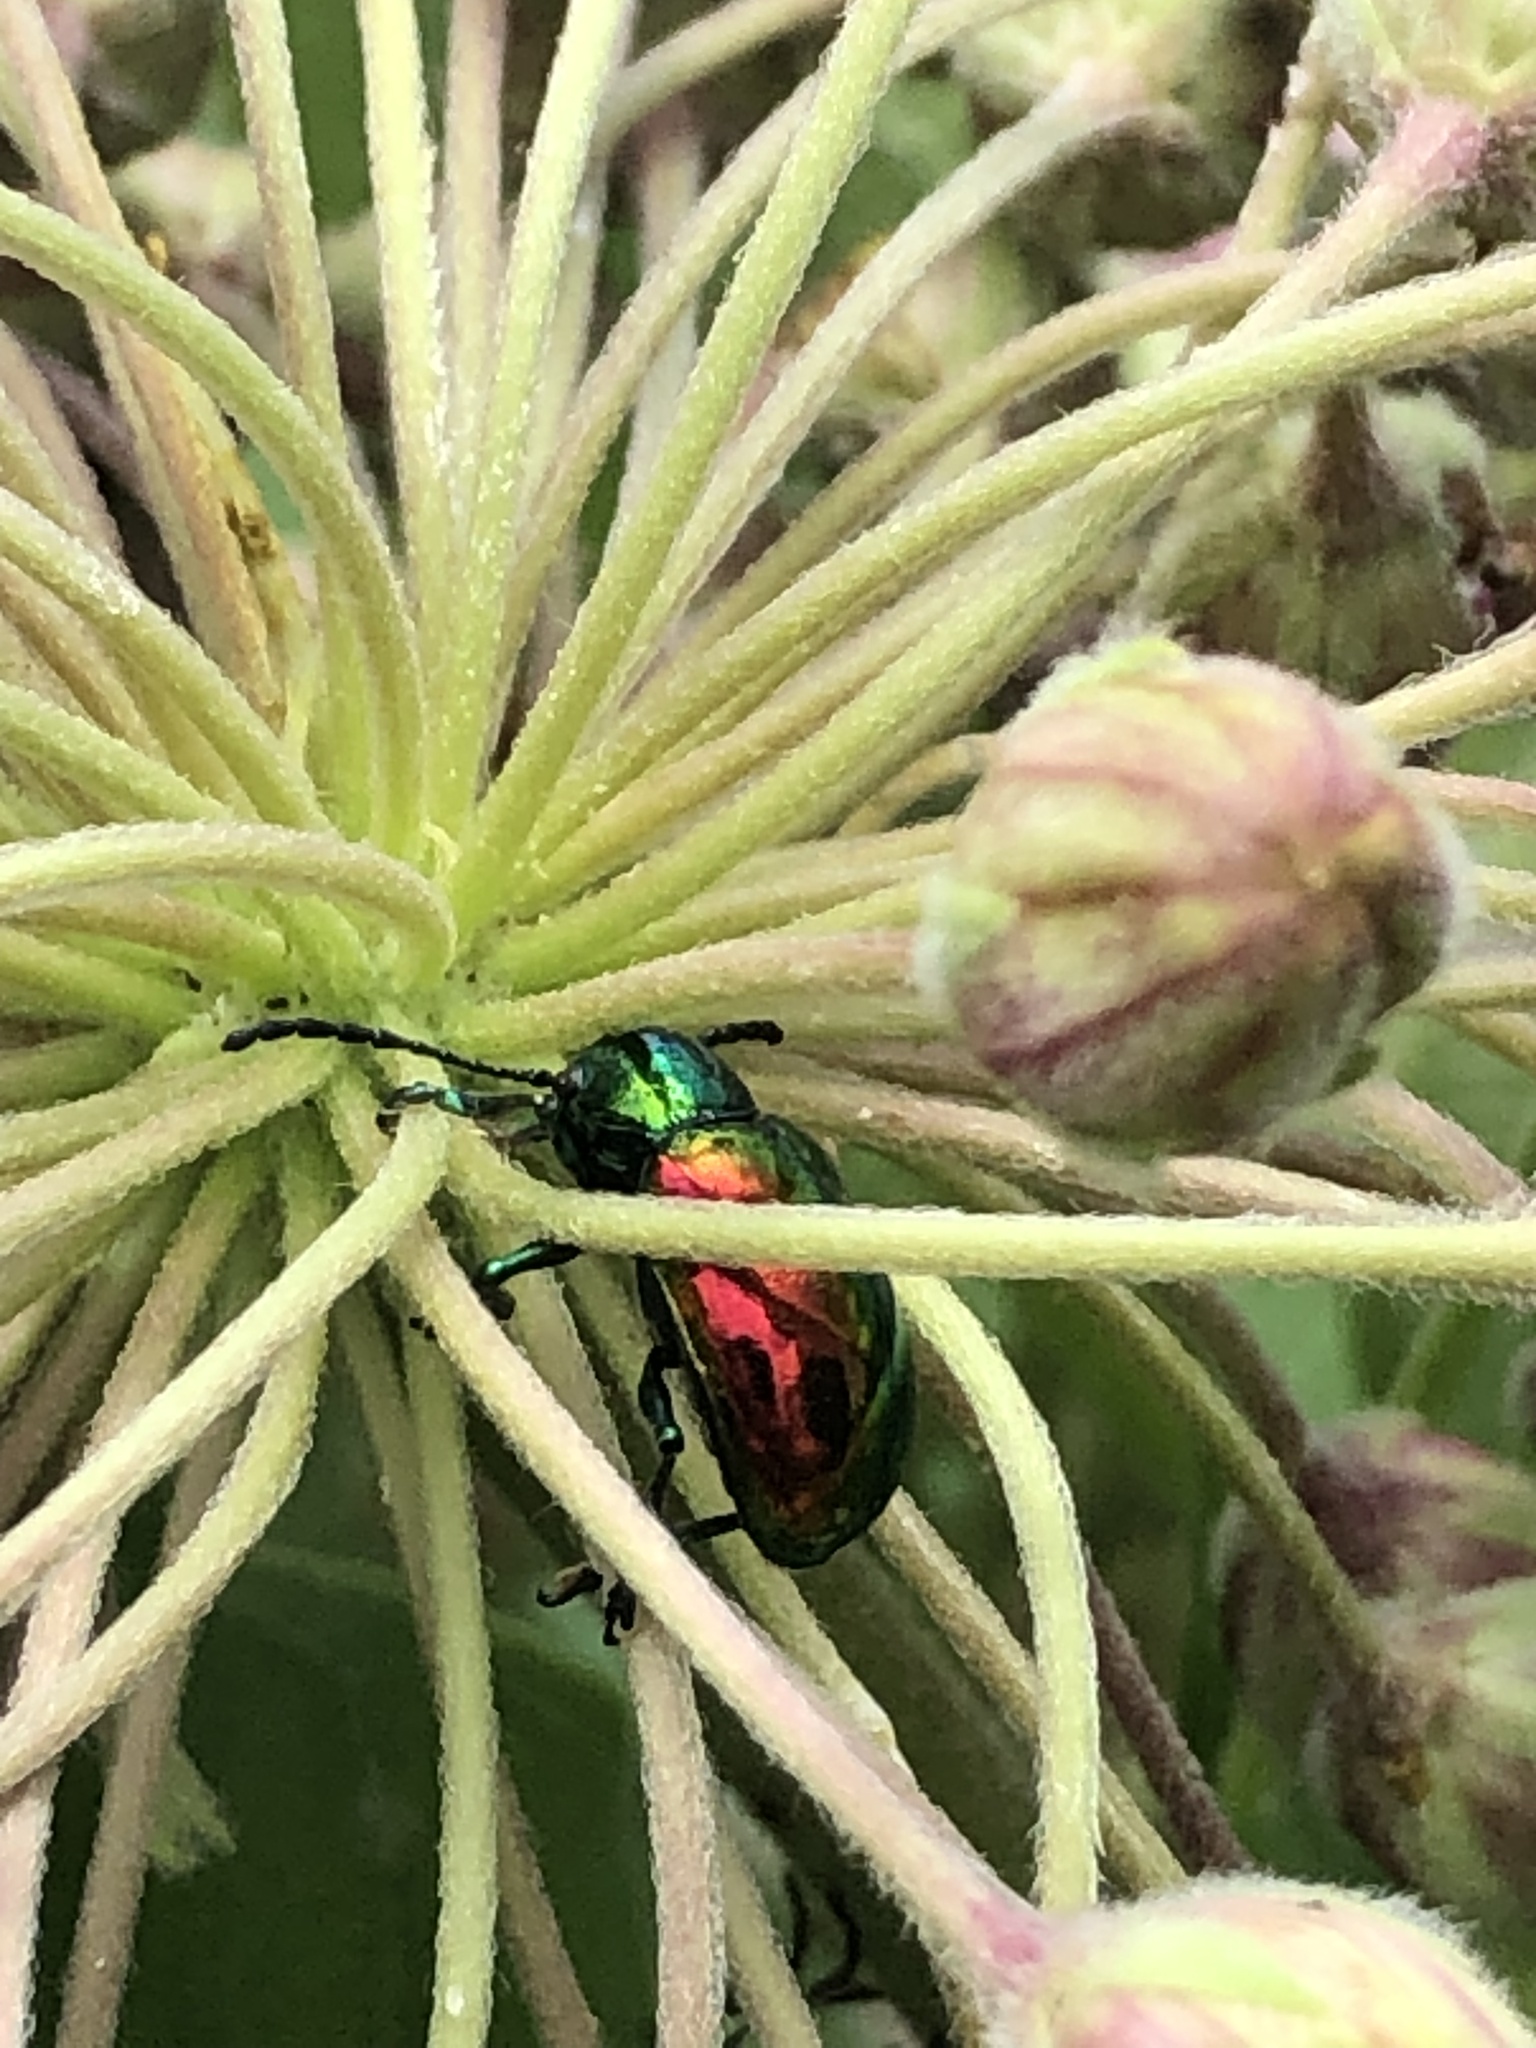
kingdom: Animalia
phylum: Arthropoda
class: Insecta
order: Coleoptera
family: Chrysomelidae
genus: Chrysochus
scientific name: Chrysochus auratus
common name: Dogbane leaf beetle
